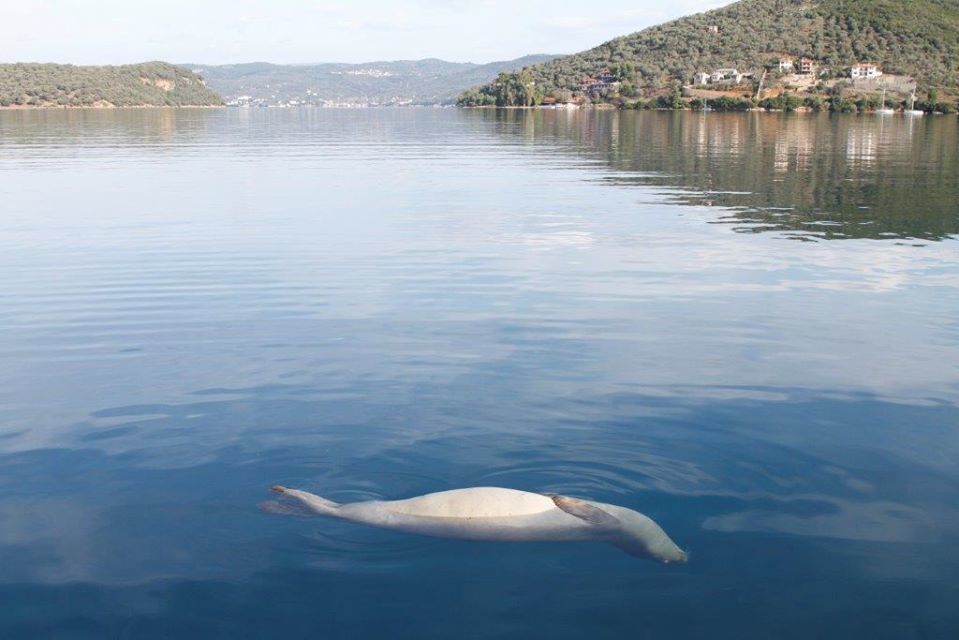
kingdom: Animalia
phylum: Chordata
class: Mammalia
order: Carnivora
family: Phocidae
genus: Monachus
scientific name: Monachus monachus
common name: Mediterranean monk seal
